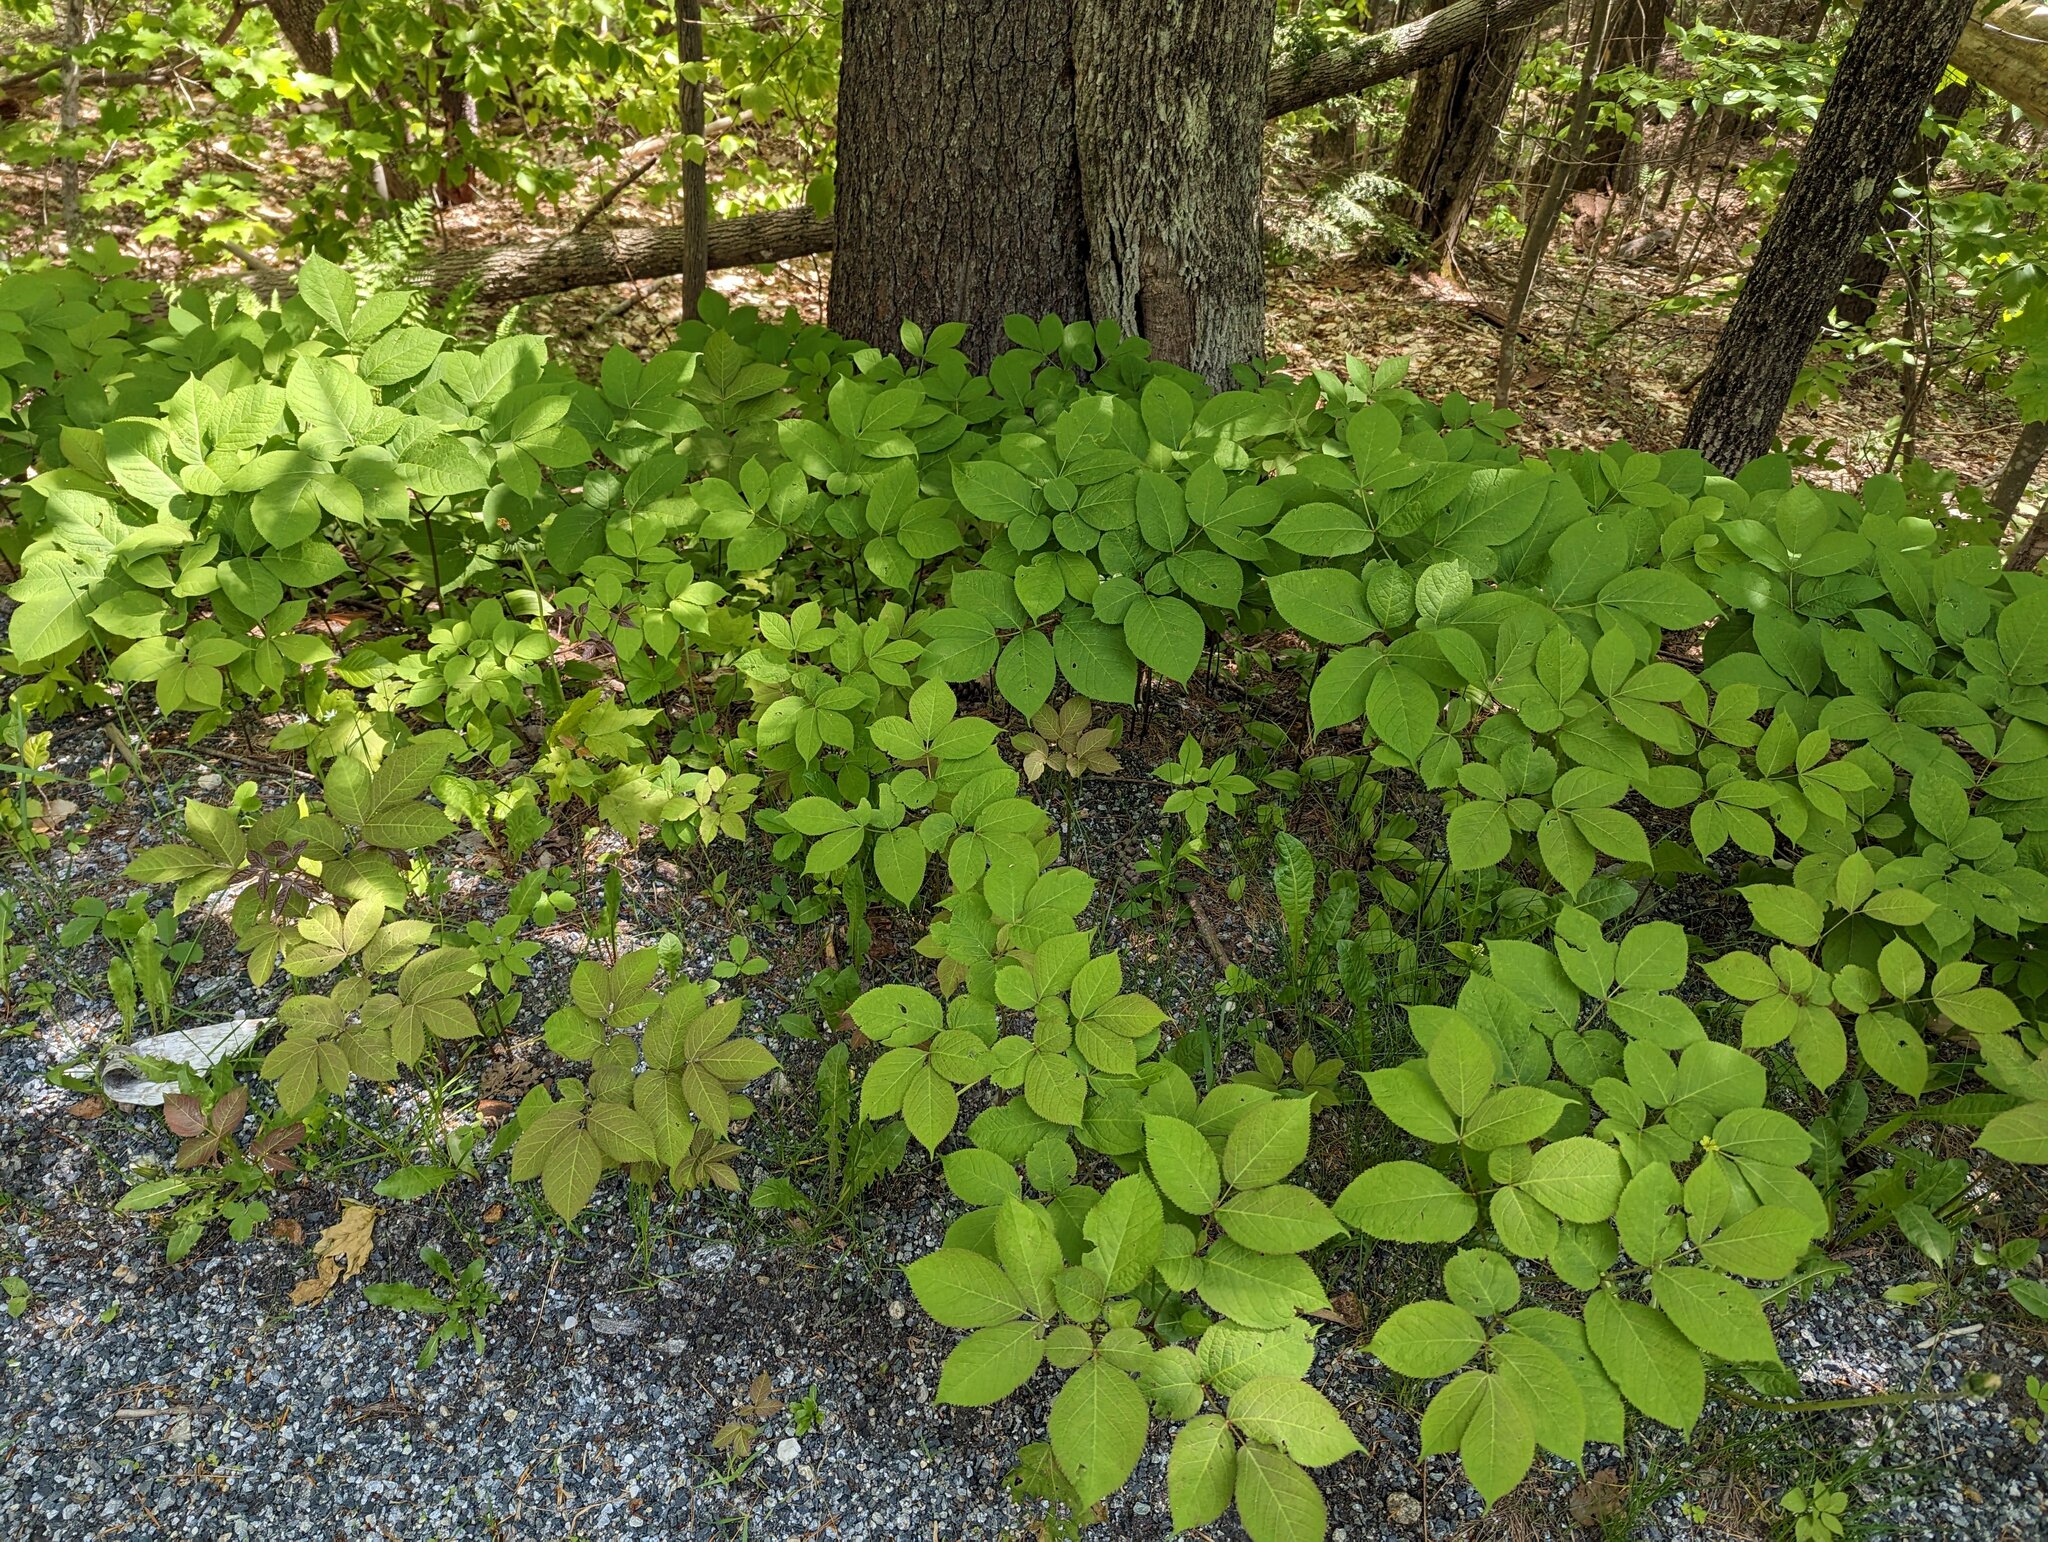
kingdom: Plantae
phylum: Tracheophyta
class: Magnoliopsida
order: Apiales
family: Araliaceae
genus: Aralia
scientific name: Aralia nudicaulis
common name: Wild sarsaparilla
